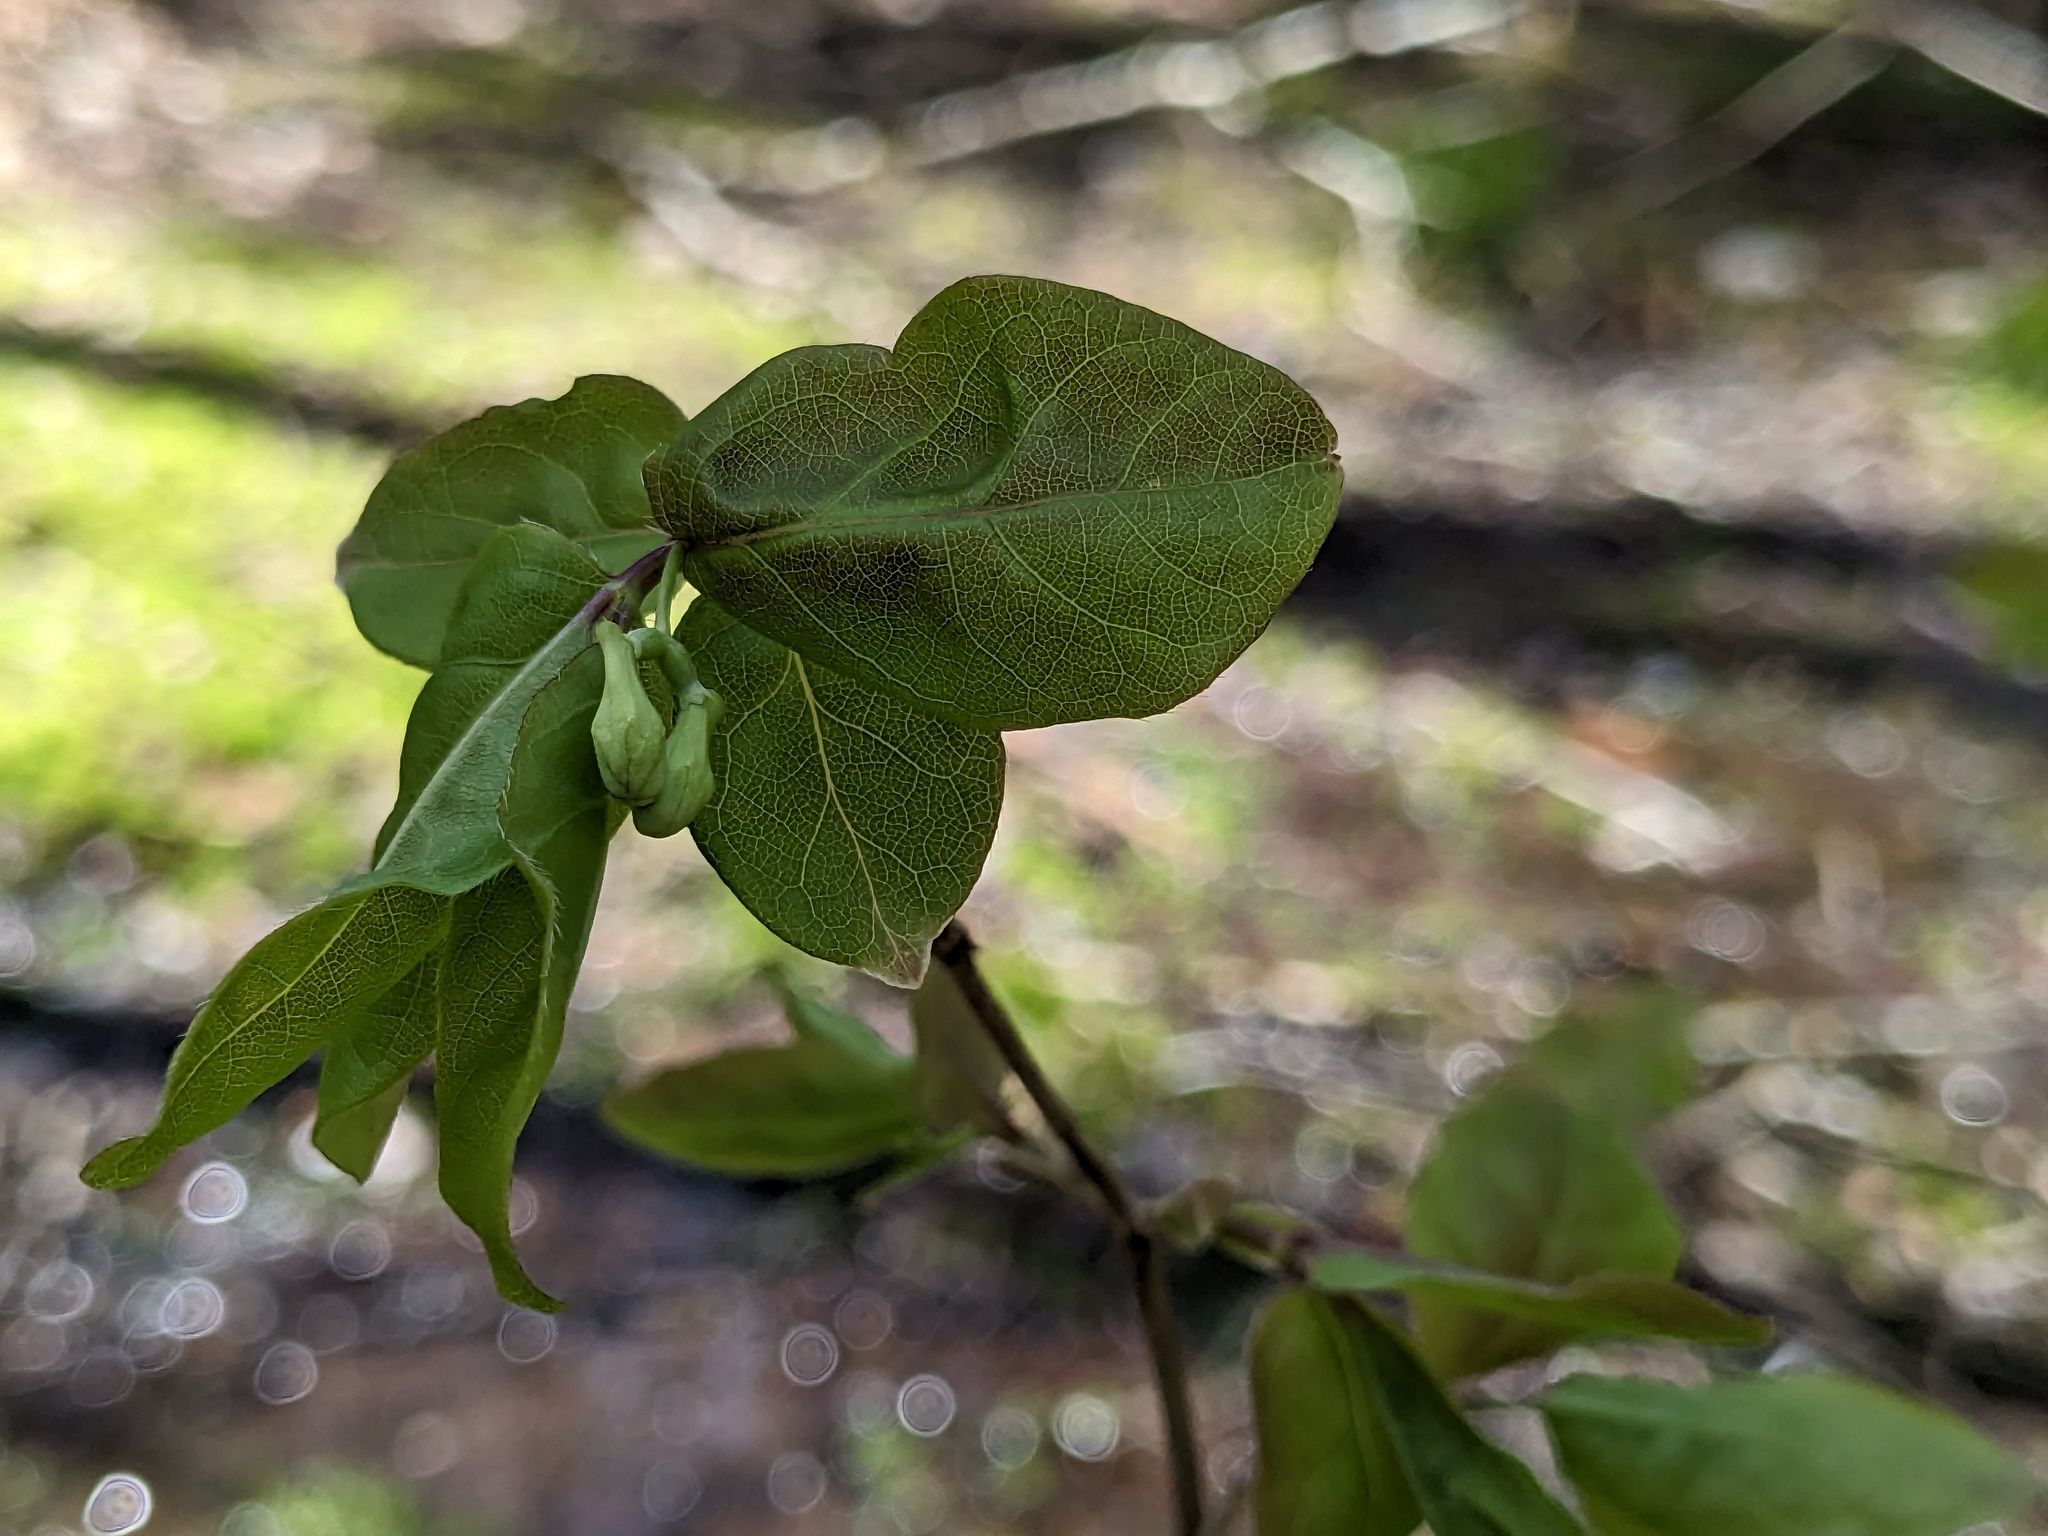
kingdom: Plantae
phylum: Tracheophyta
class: Magnoliopsida
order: Dipsacales
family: Caprifoliaceae
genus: Lonicera
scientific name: Lonicera canadensis
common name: American fly-honeysuckle
